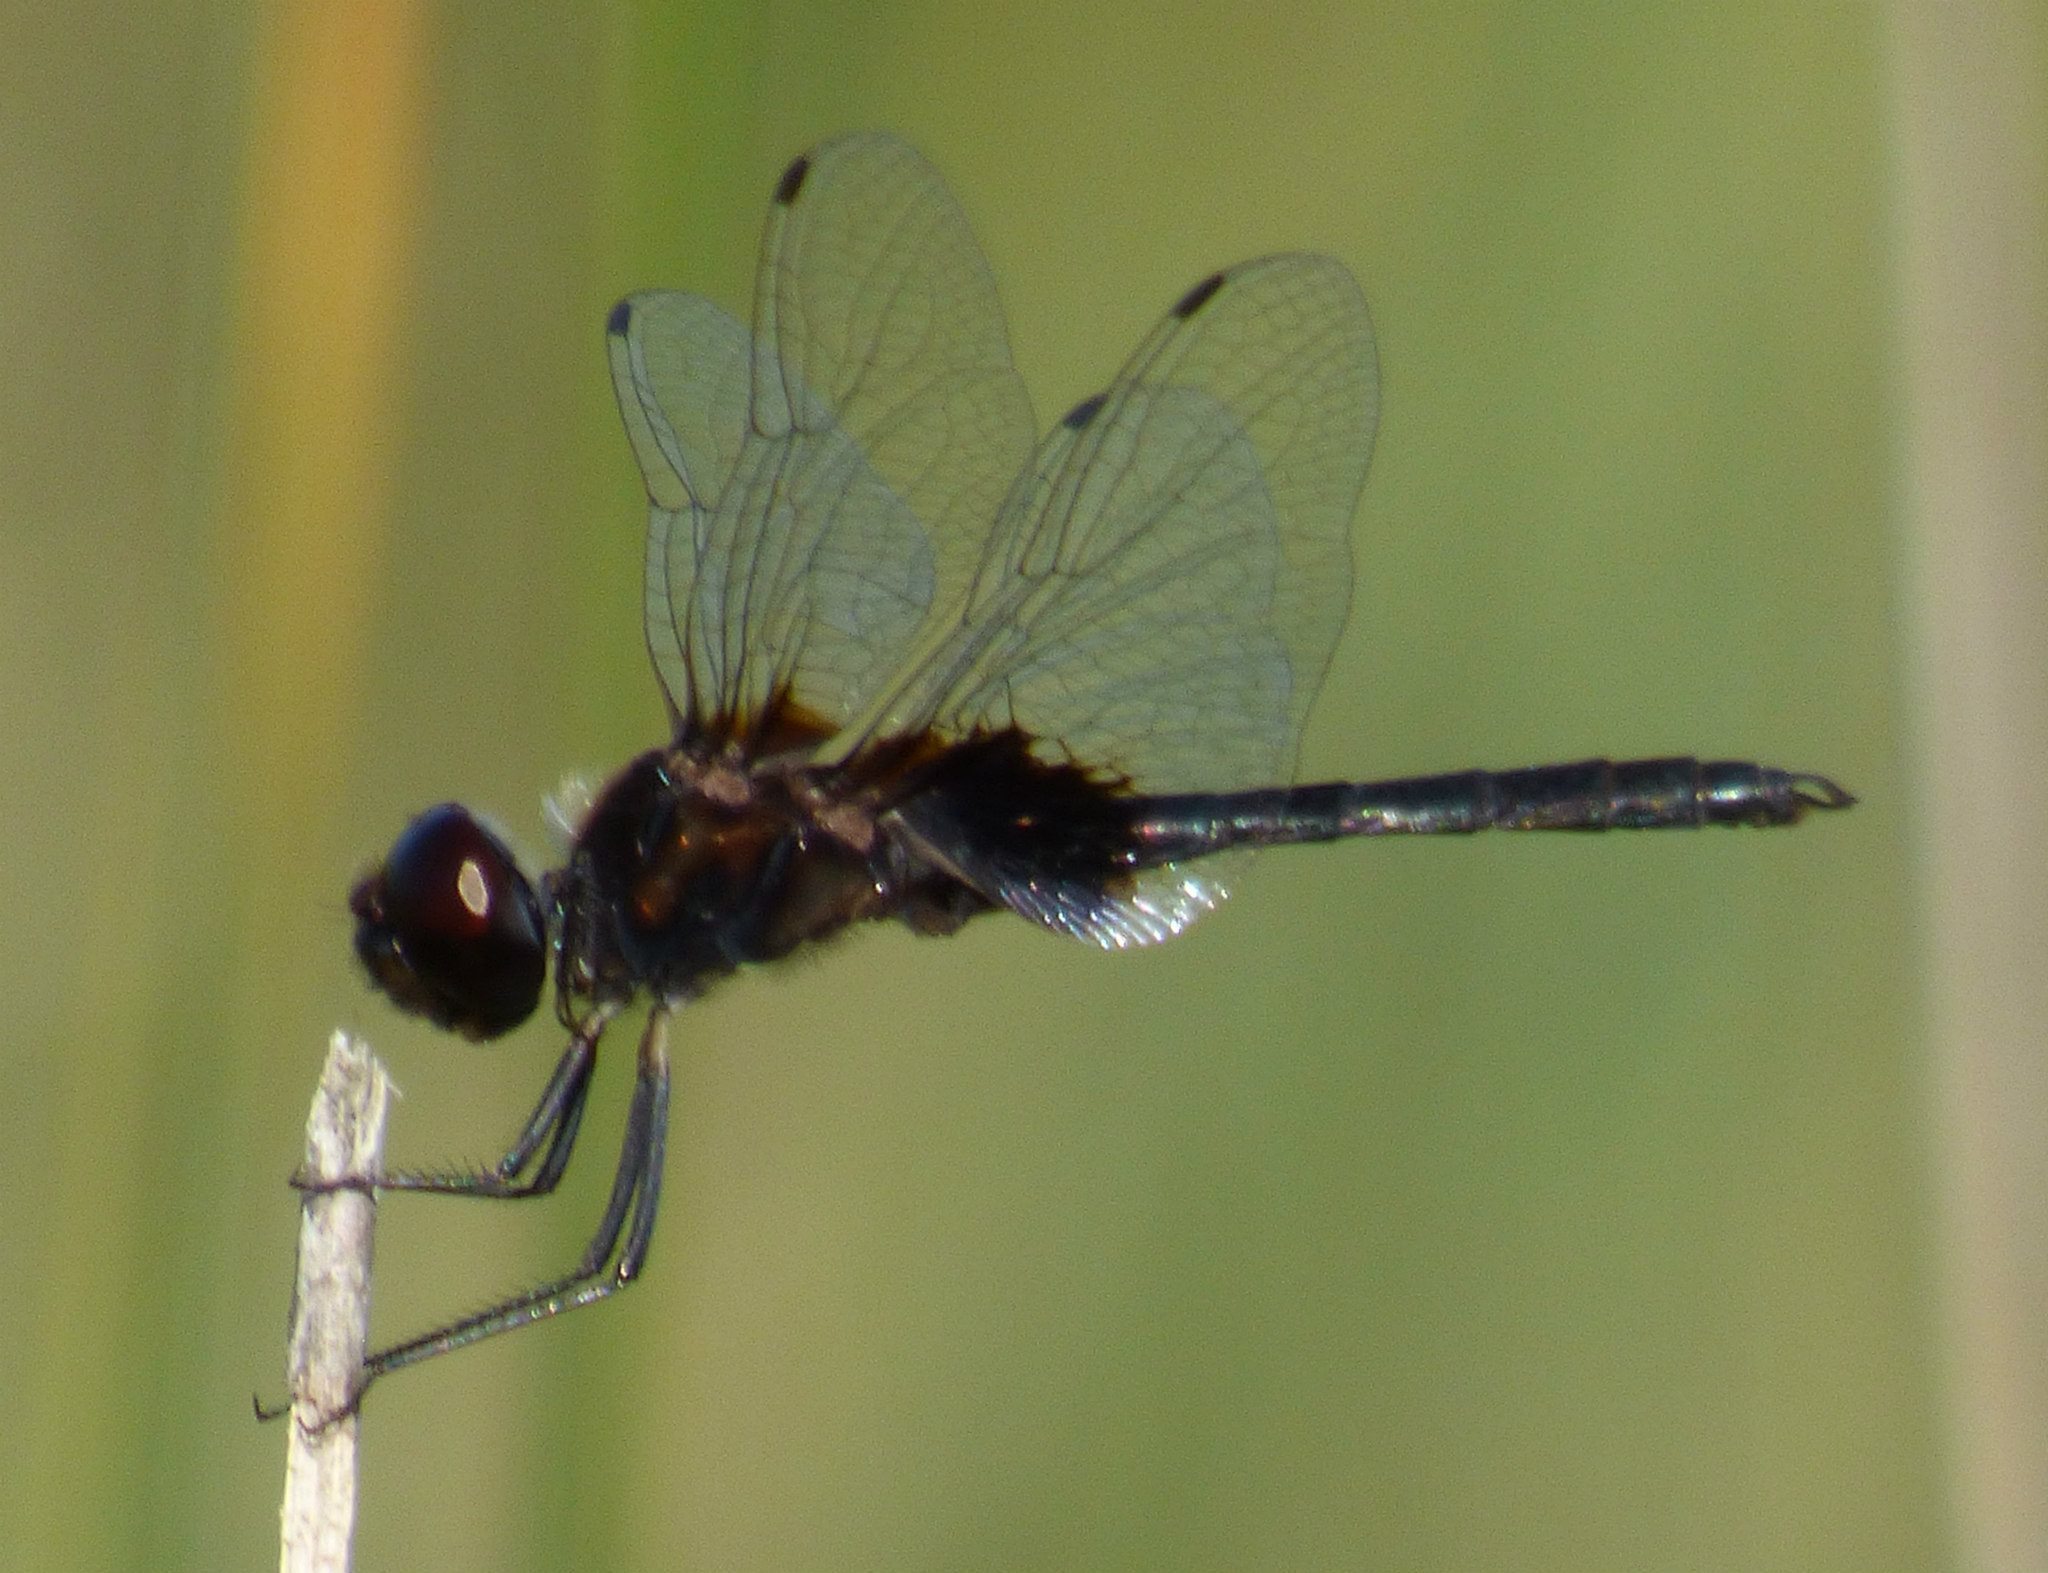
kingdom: Animalia
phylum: Arthropoda
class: Insecta
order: Odonata
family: Libellulidae
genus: Macrodiplax
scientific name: Macrodiplax balteata
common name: Marl pennant
